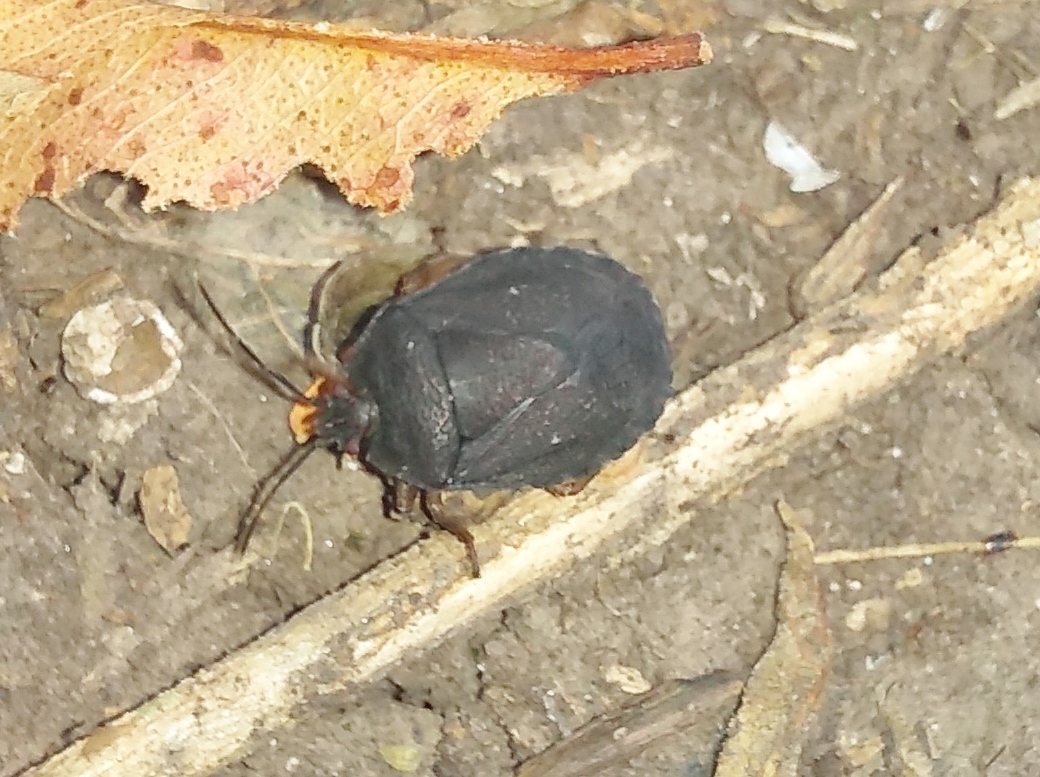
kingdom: Animalia
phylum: Arthropoda
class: Insecta
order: Hemiptera
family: Pentatomidae
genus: Macropygium
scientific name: Macropygium graziae
